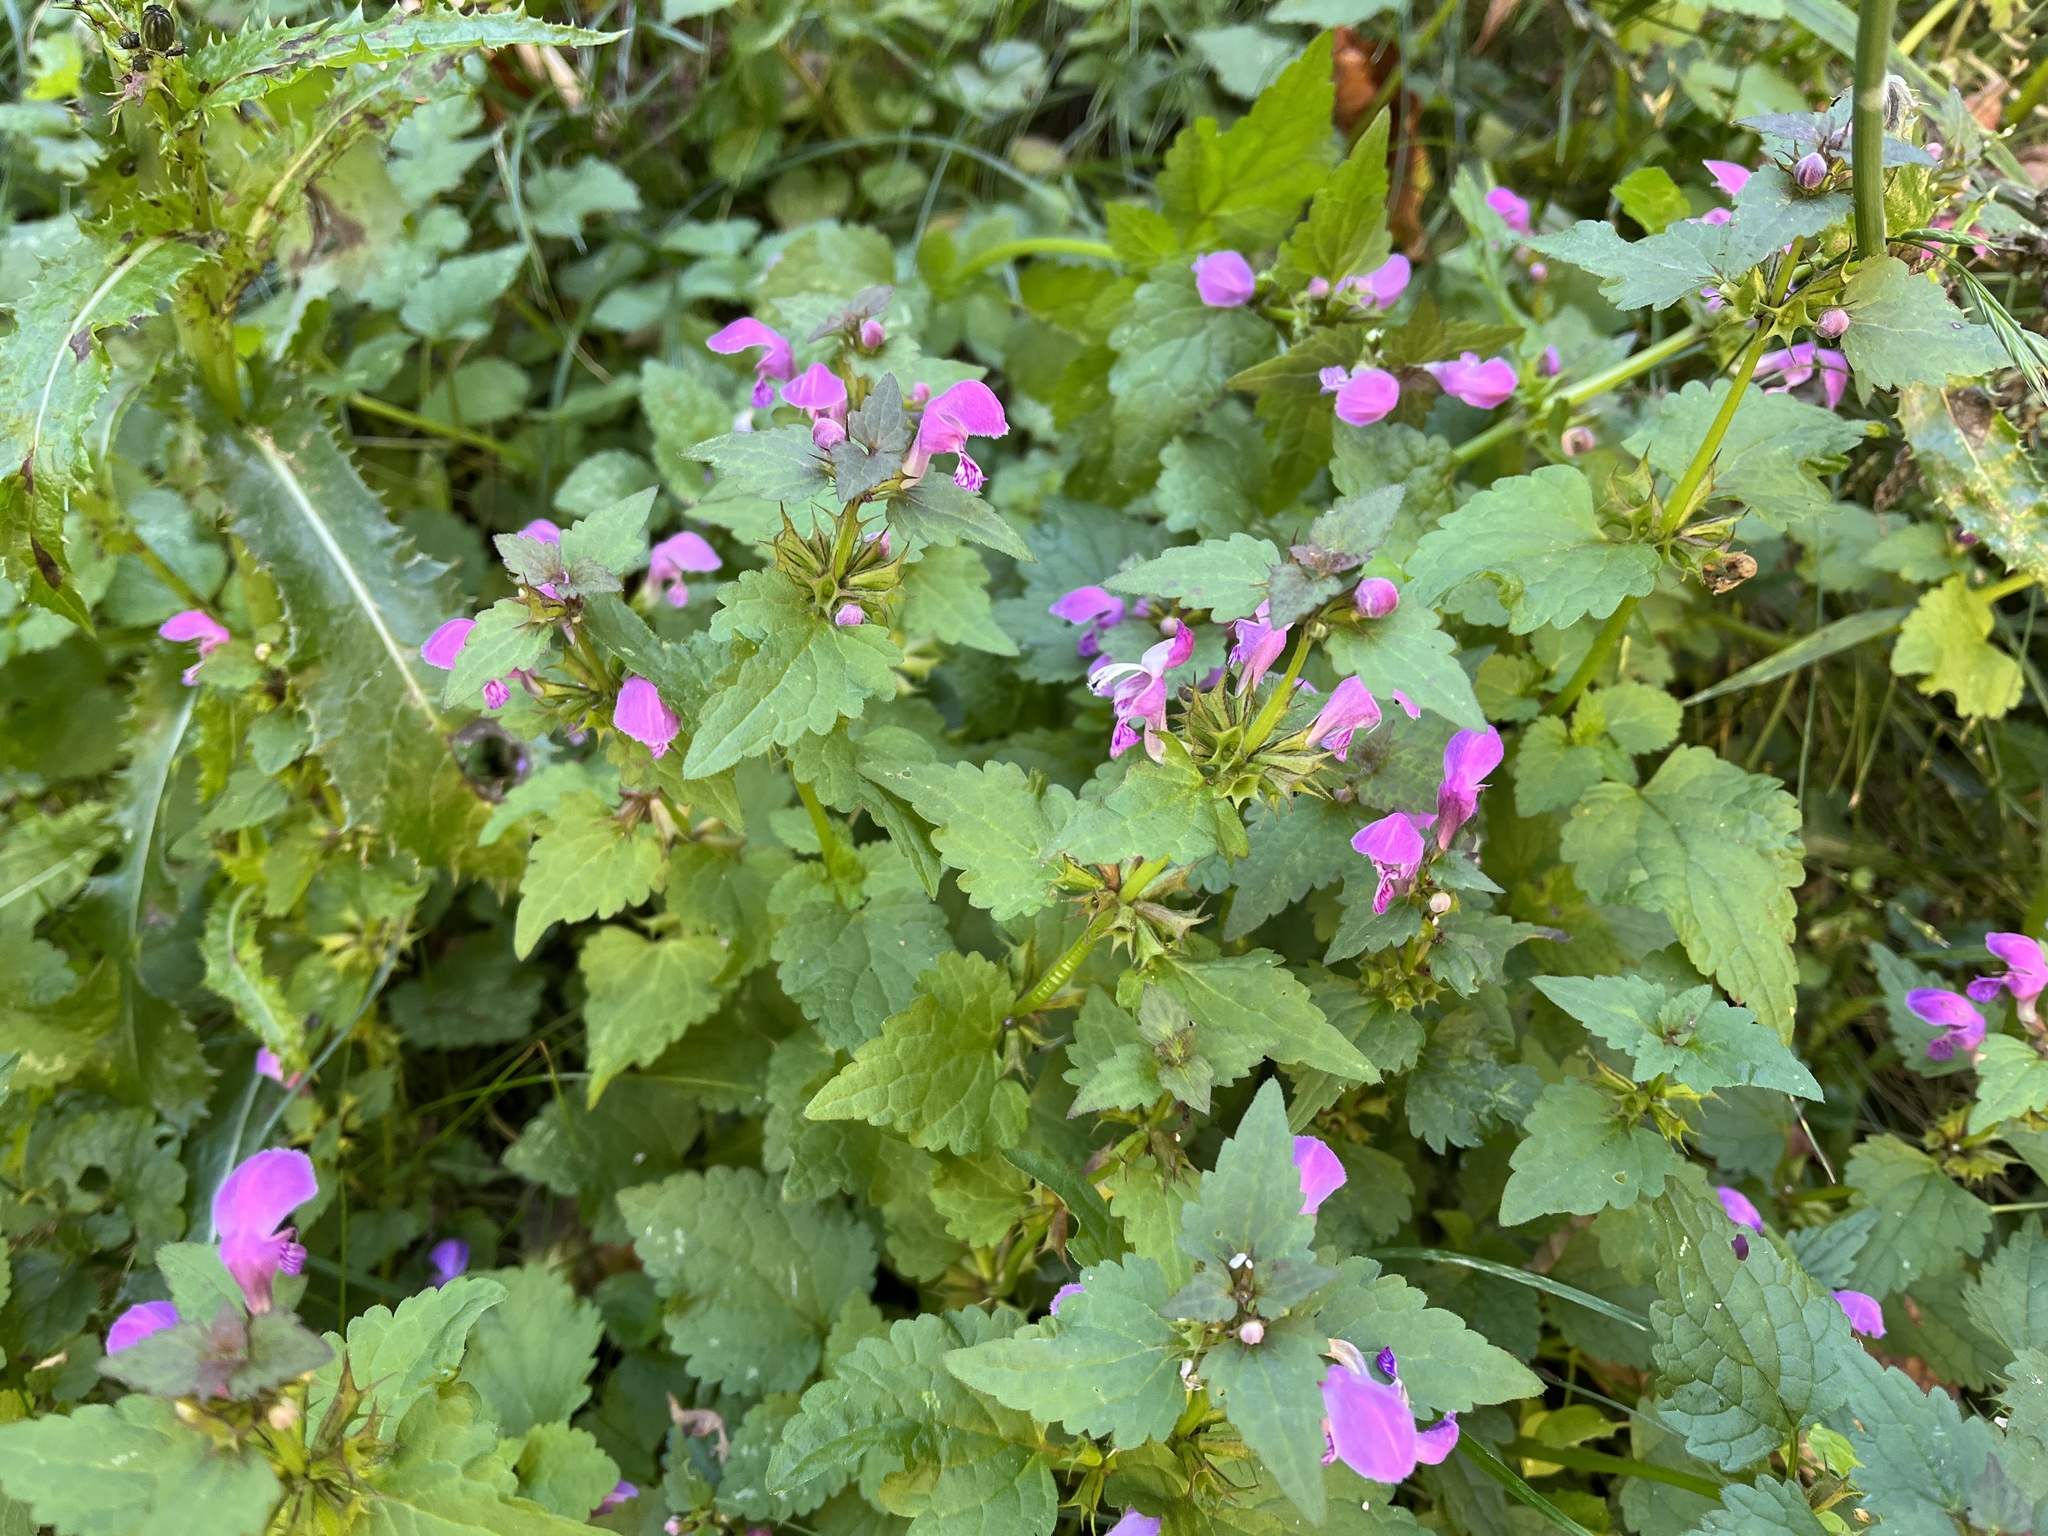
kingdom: Plantae
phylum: Tracheophyta
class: Magnoliopsida
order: Lamiales
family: Lamiaceae
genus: Lamium
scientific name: Lamium maculatum
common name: Spotted dead-nettle
